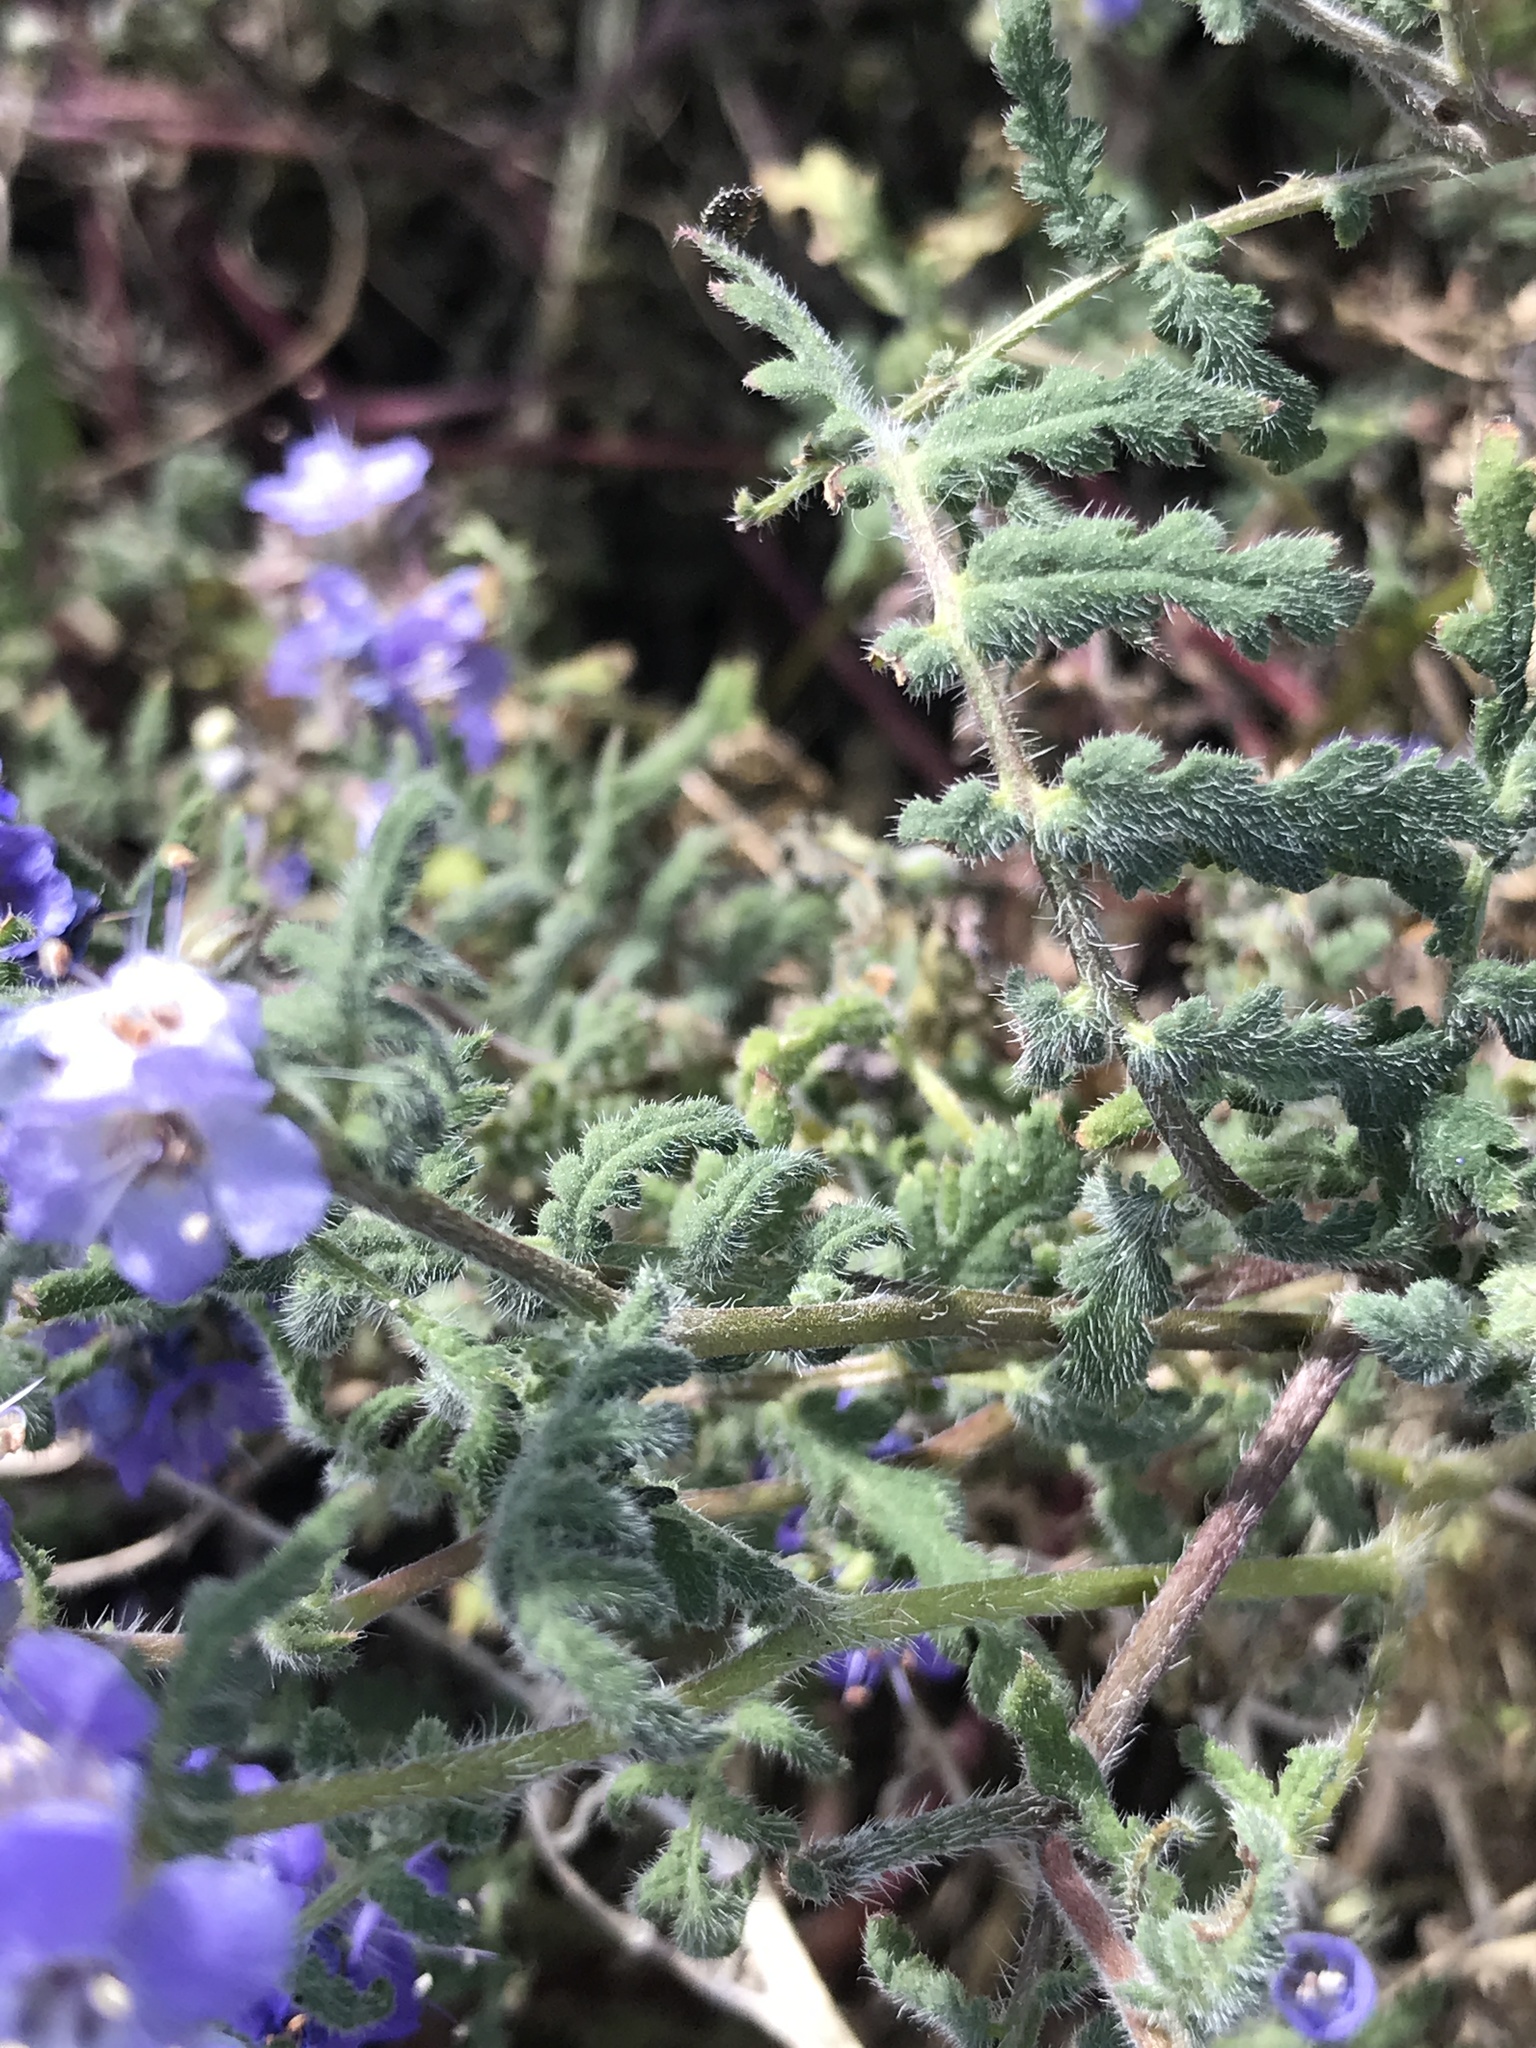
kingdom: Plantae
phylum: Tracheophyta
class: Magnoliopsida
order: Boraginales
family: Hydrophyllaceae
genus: Phacelia
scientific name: Phacelia distans
